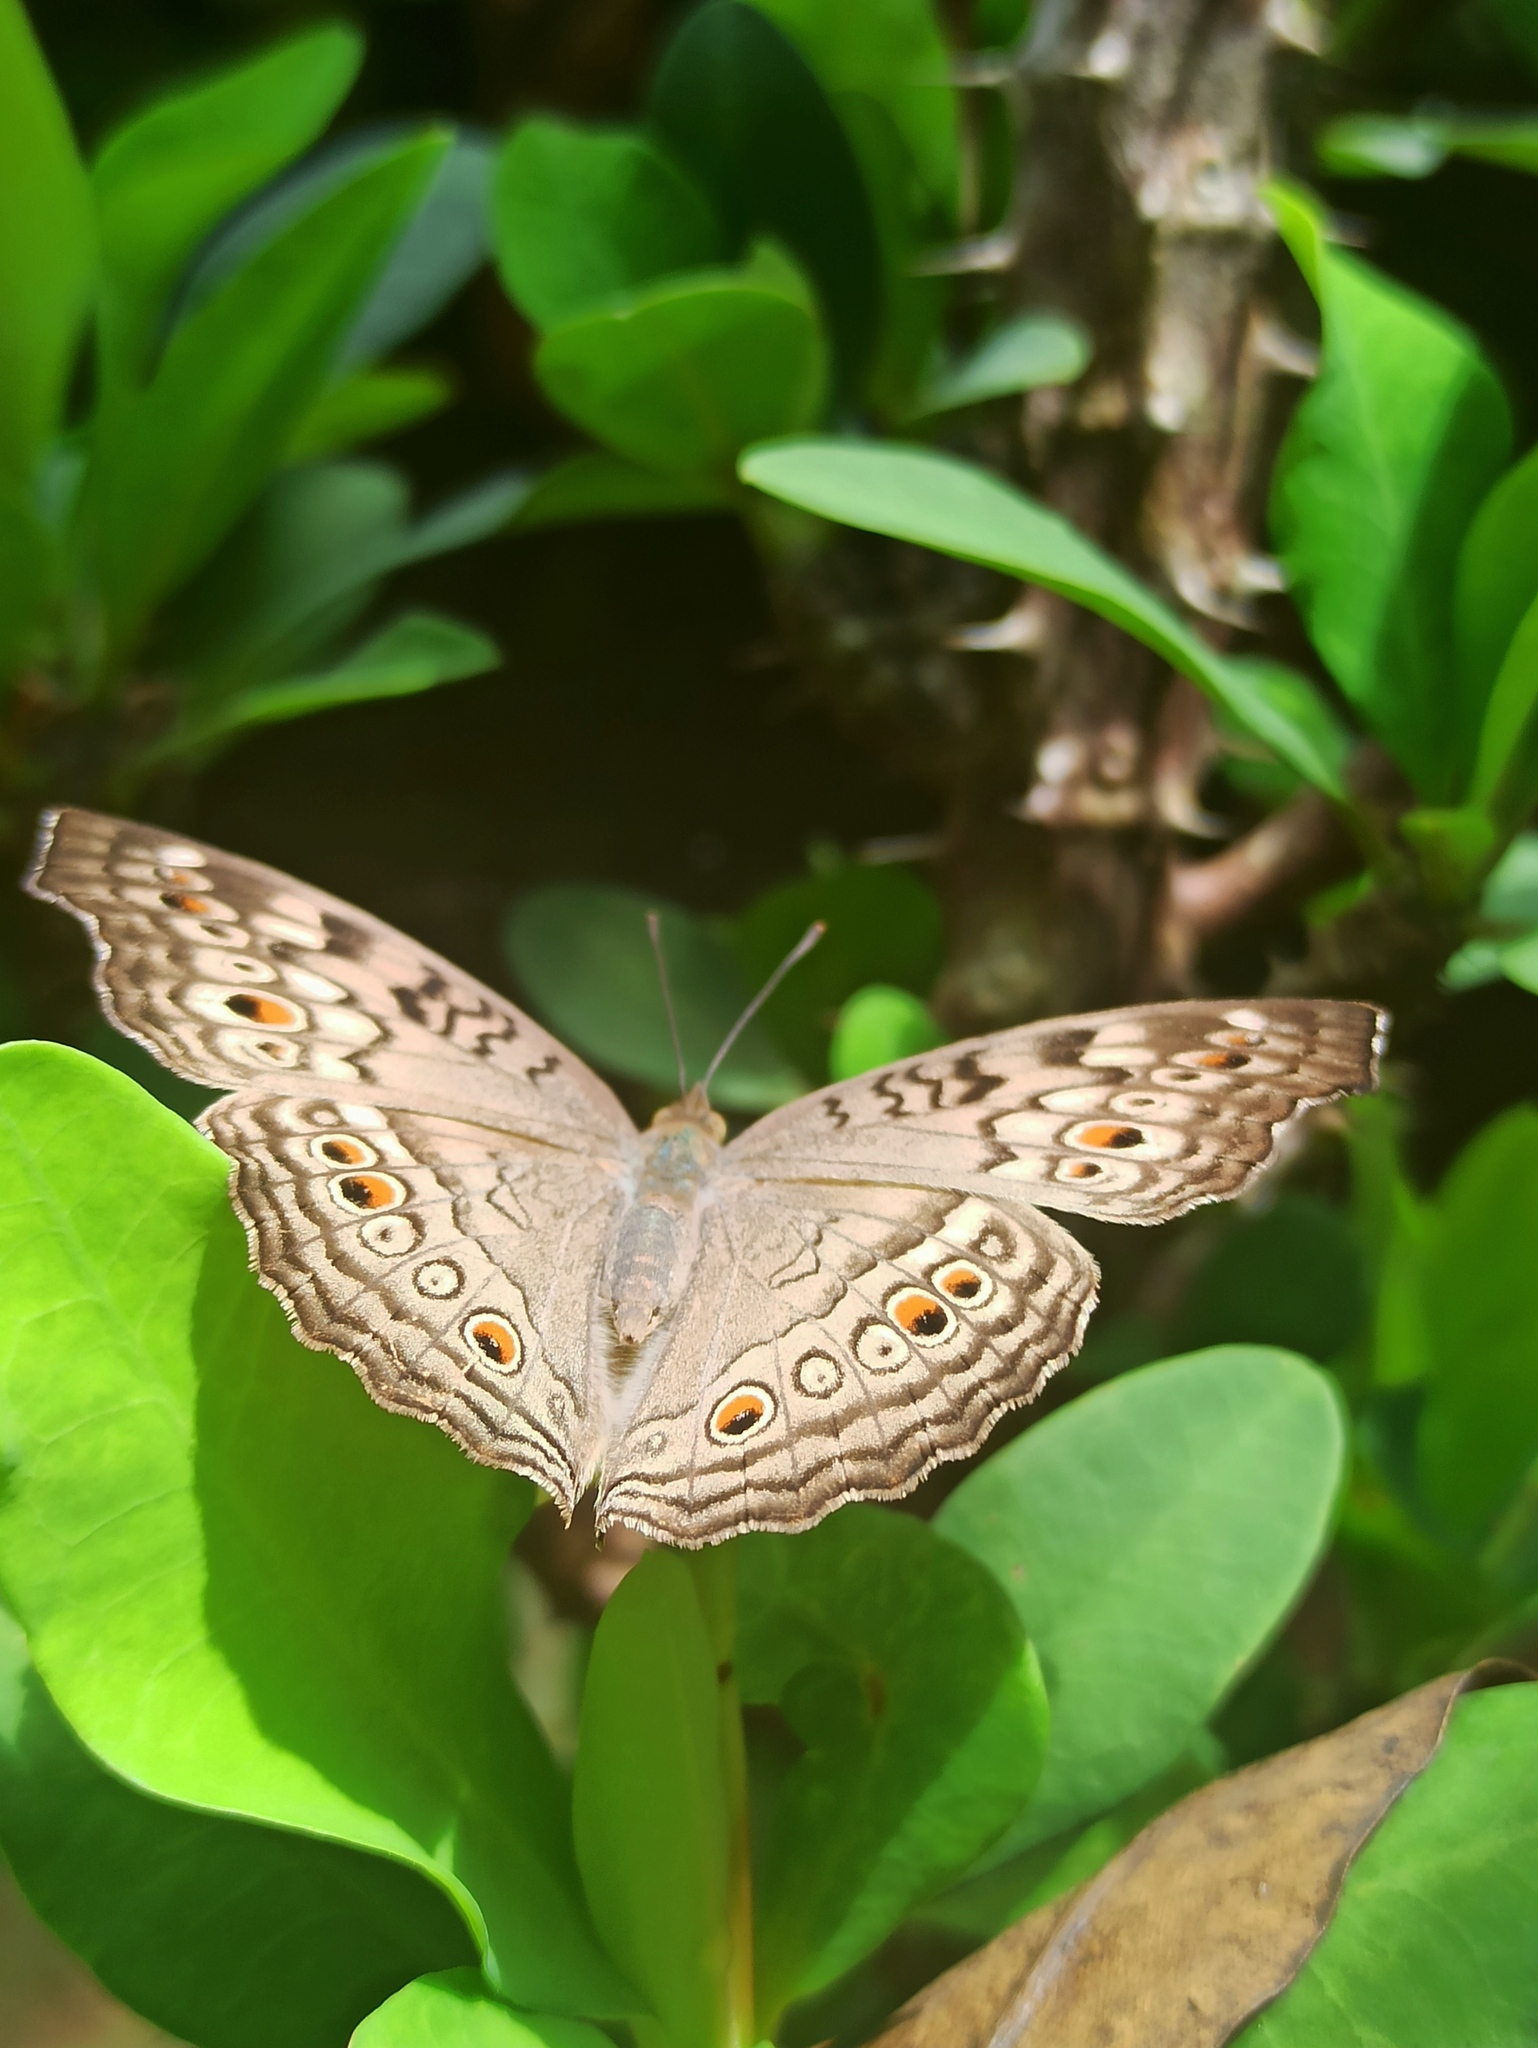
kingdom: Animalia
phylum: Arthropoda
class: Insecta
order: Lepidoptera
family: Nymphalidae
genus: Junonia
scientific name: Junonia atlites
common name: Grey pansy
